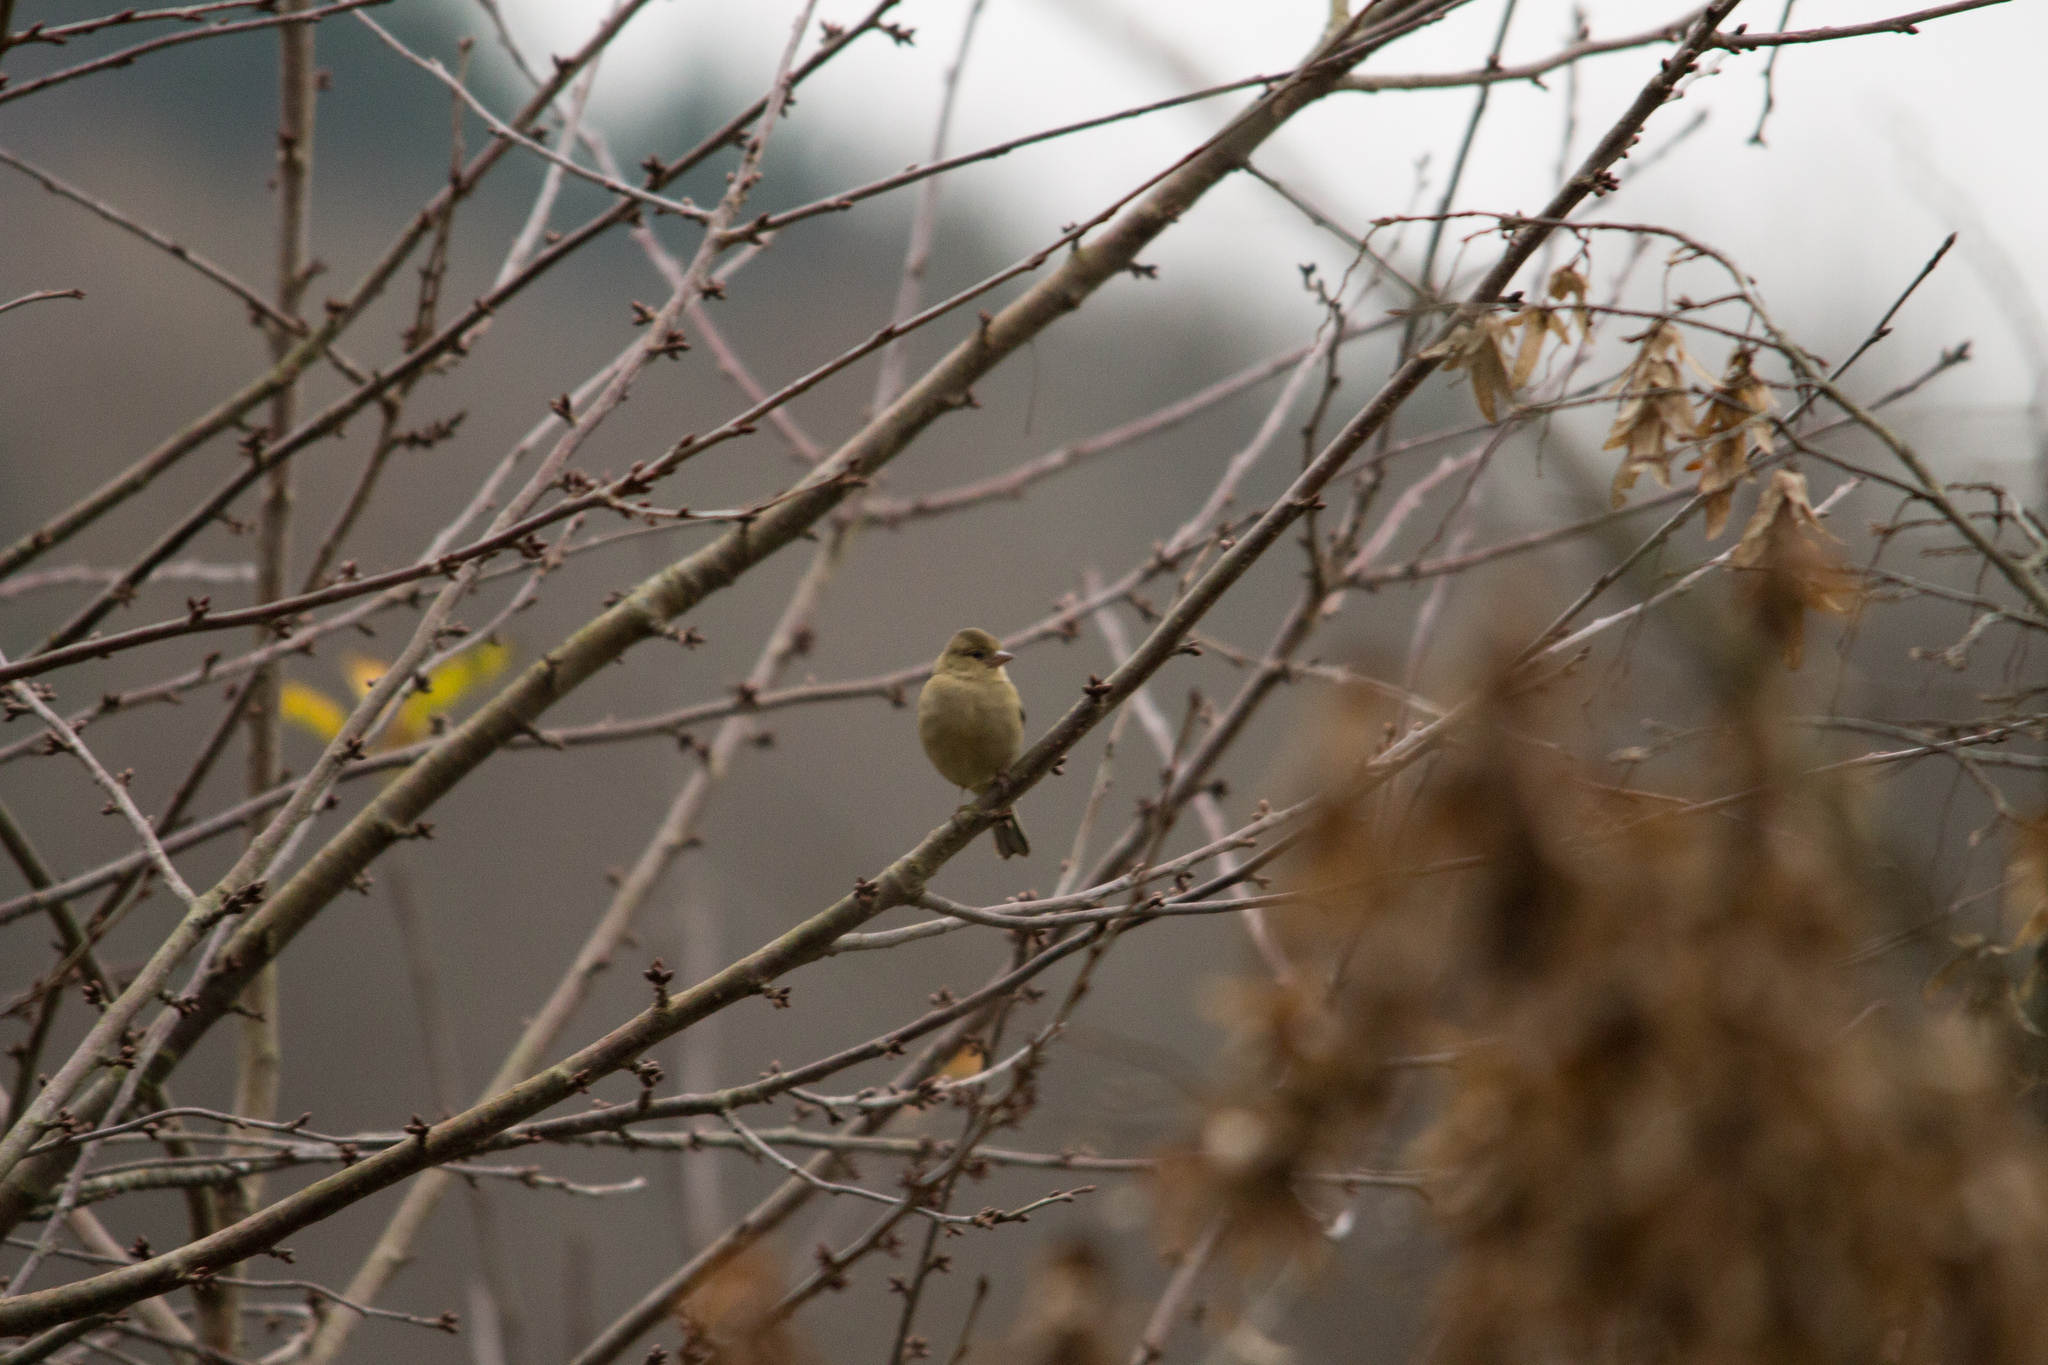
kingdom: Animalia
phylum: Chordata
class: Aves
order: Passeriformes
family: Fringillidae
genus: Fringilla
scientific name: Fringilla coelebs
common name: Common chaffinch
